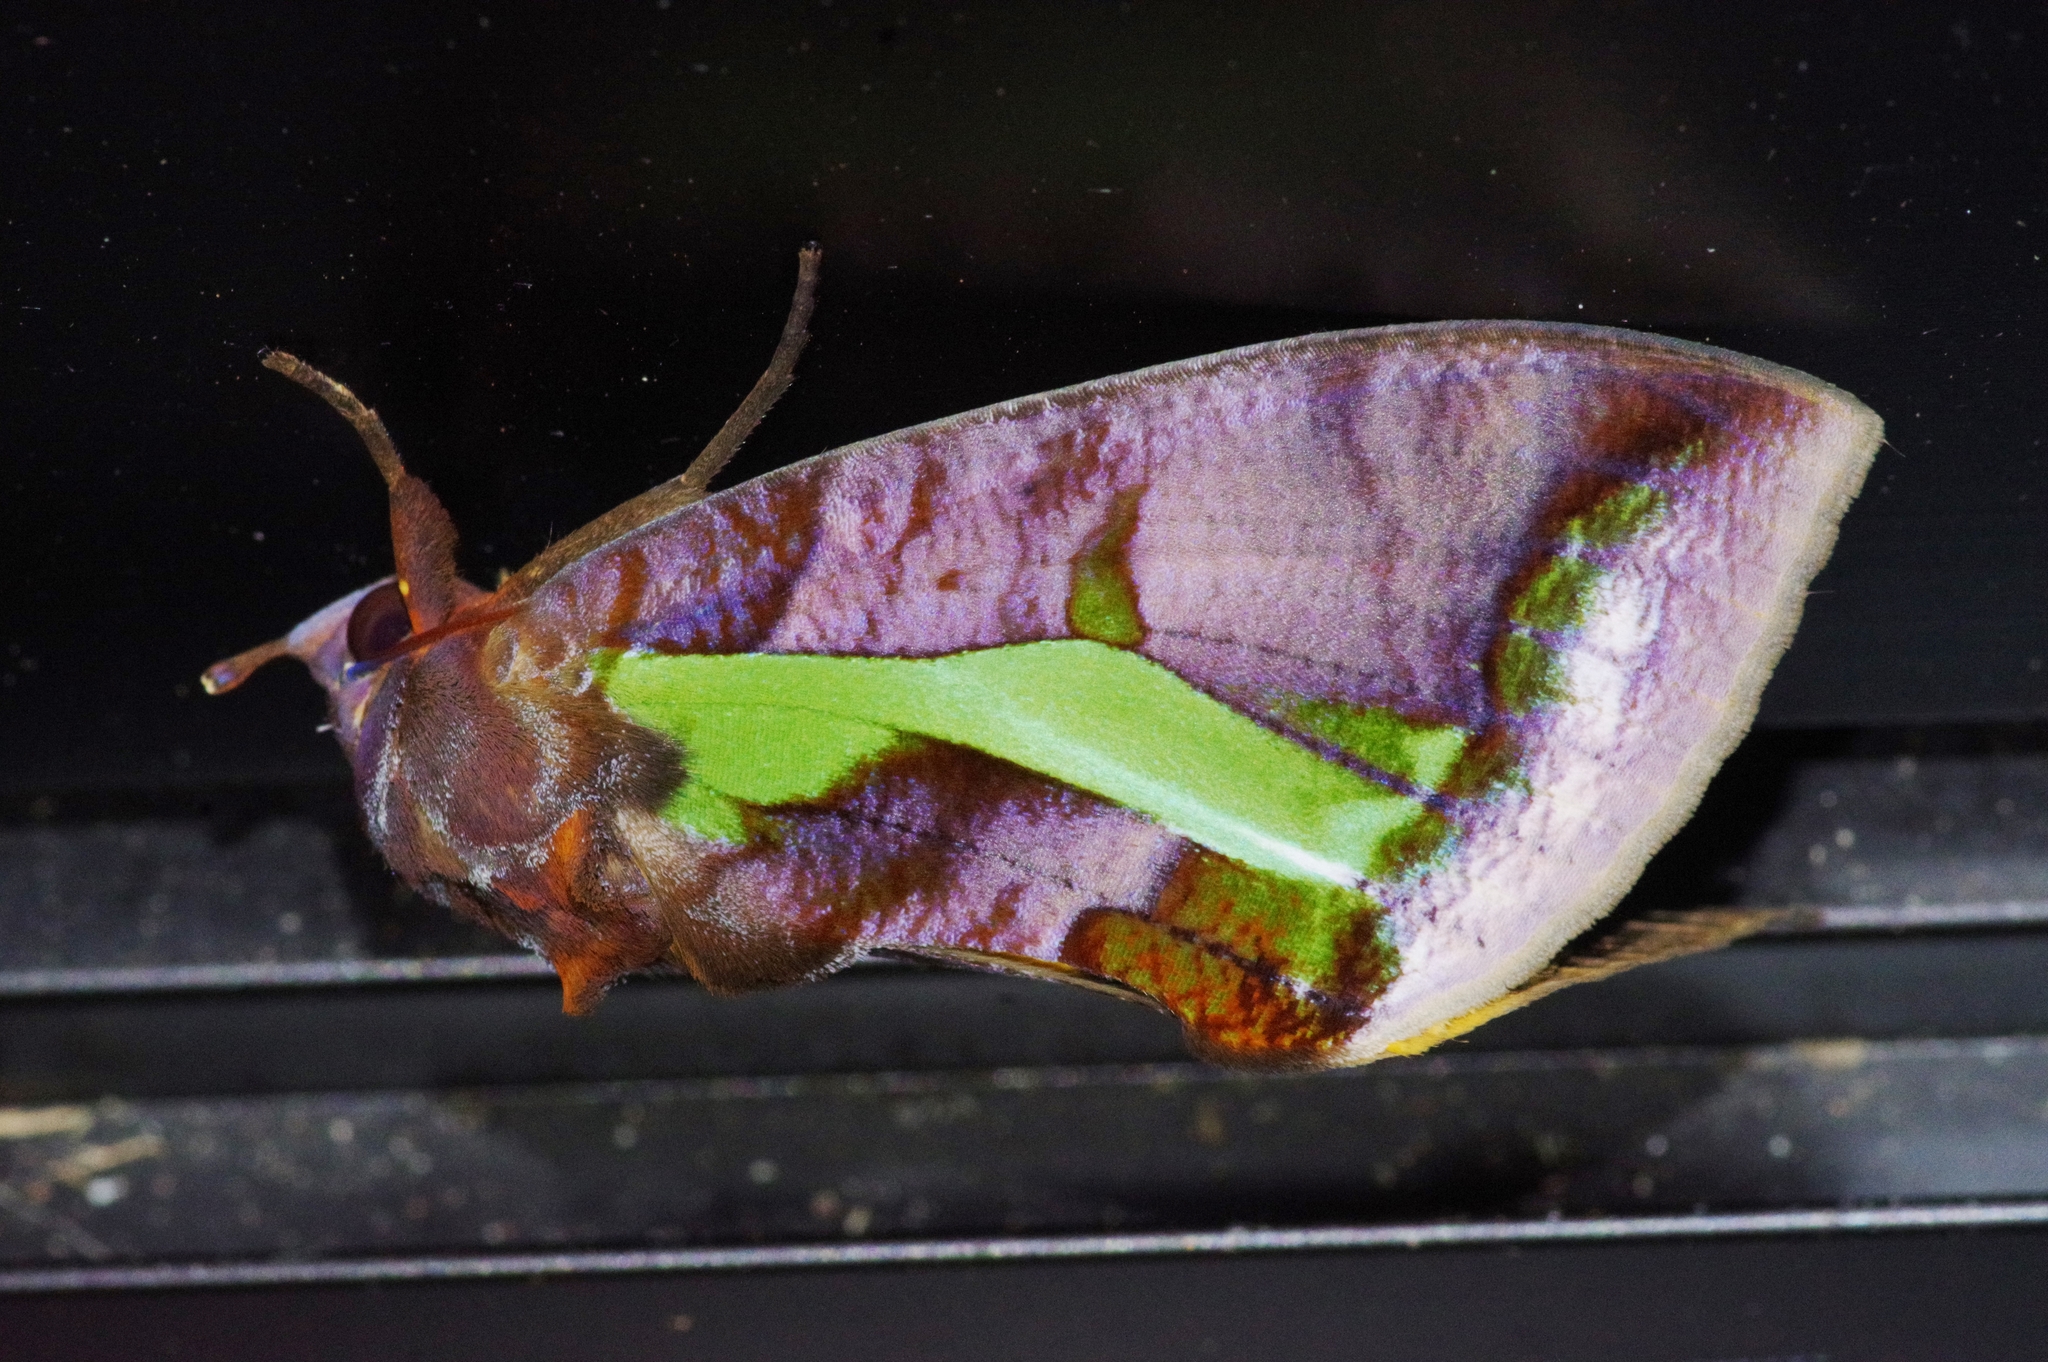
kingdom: Animalia
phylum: Arthropoda
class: Insecta
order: Lepidoptera
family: Erebidae
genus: Eudocima
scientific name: Eudocima homaena
